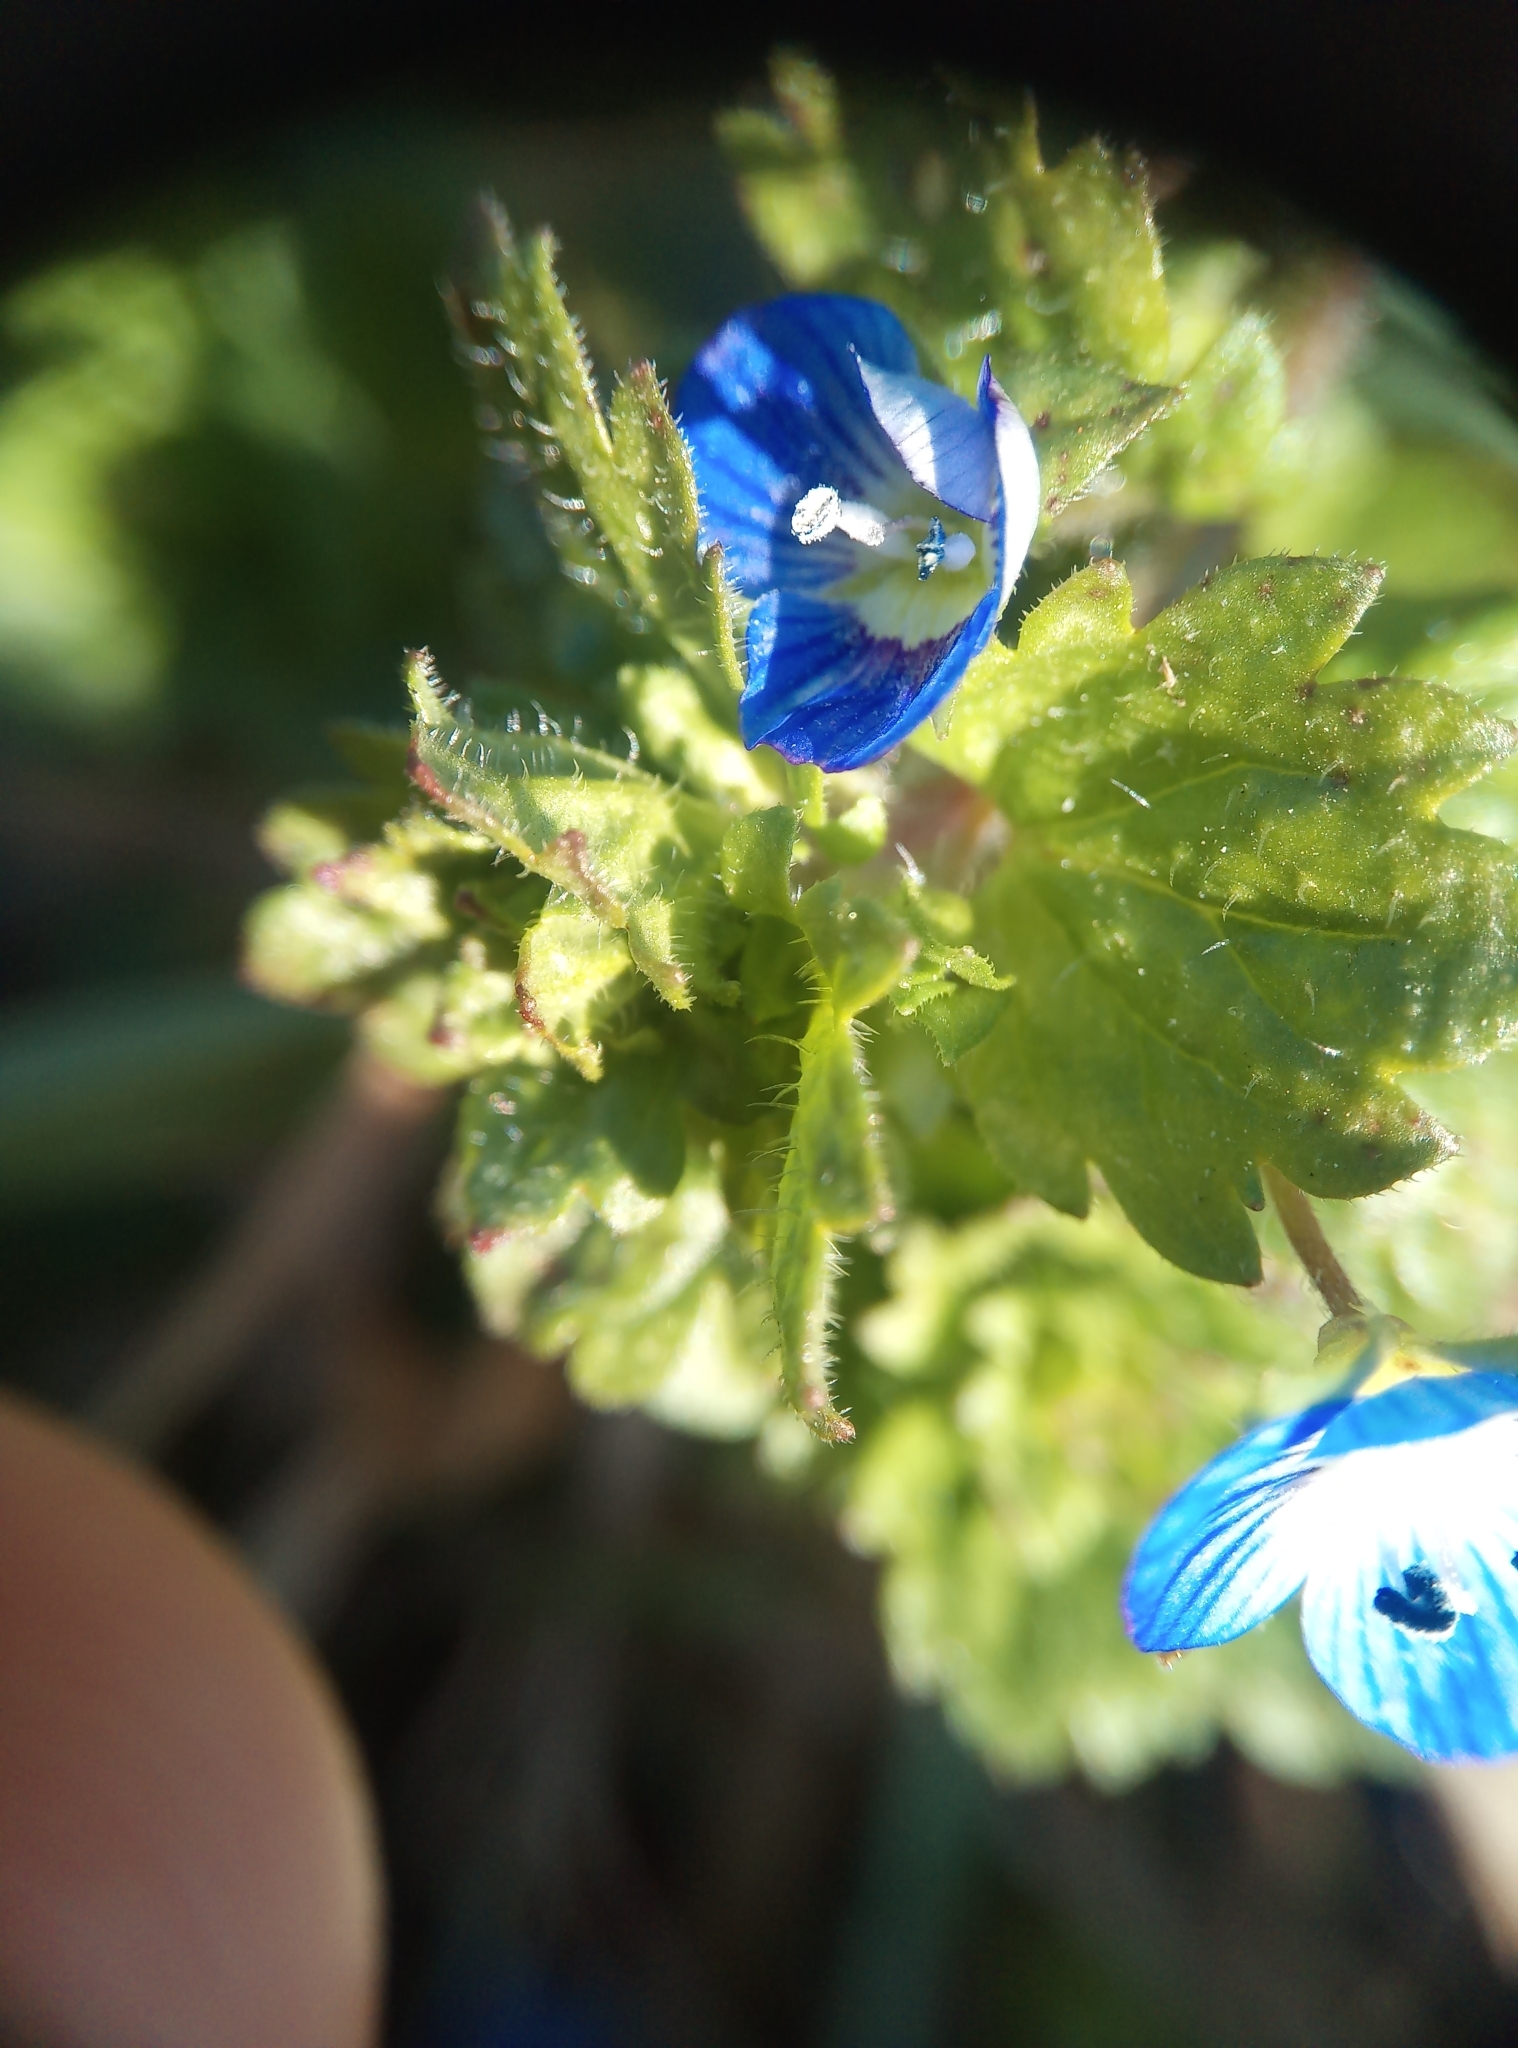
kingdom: Plantae
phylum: Tracheophyta
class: Magnoliopsida
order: Lamiales
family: Plantaginaceae
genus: Veronica
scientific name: Veronica persica
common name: Common field-speedwell
